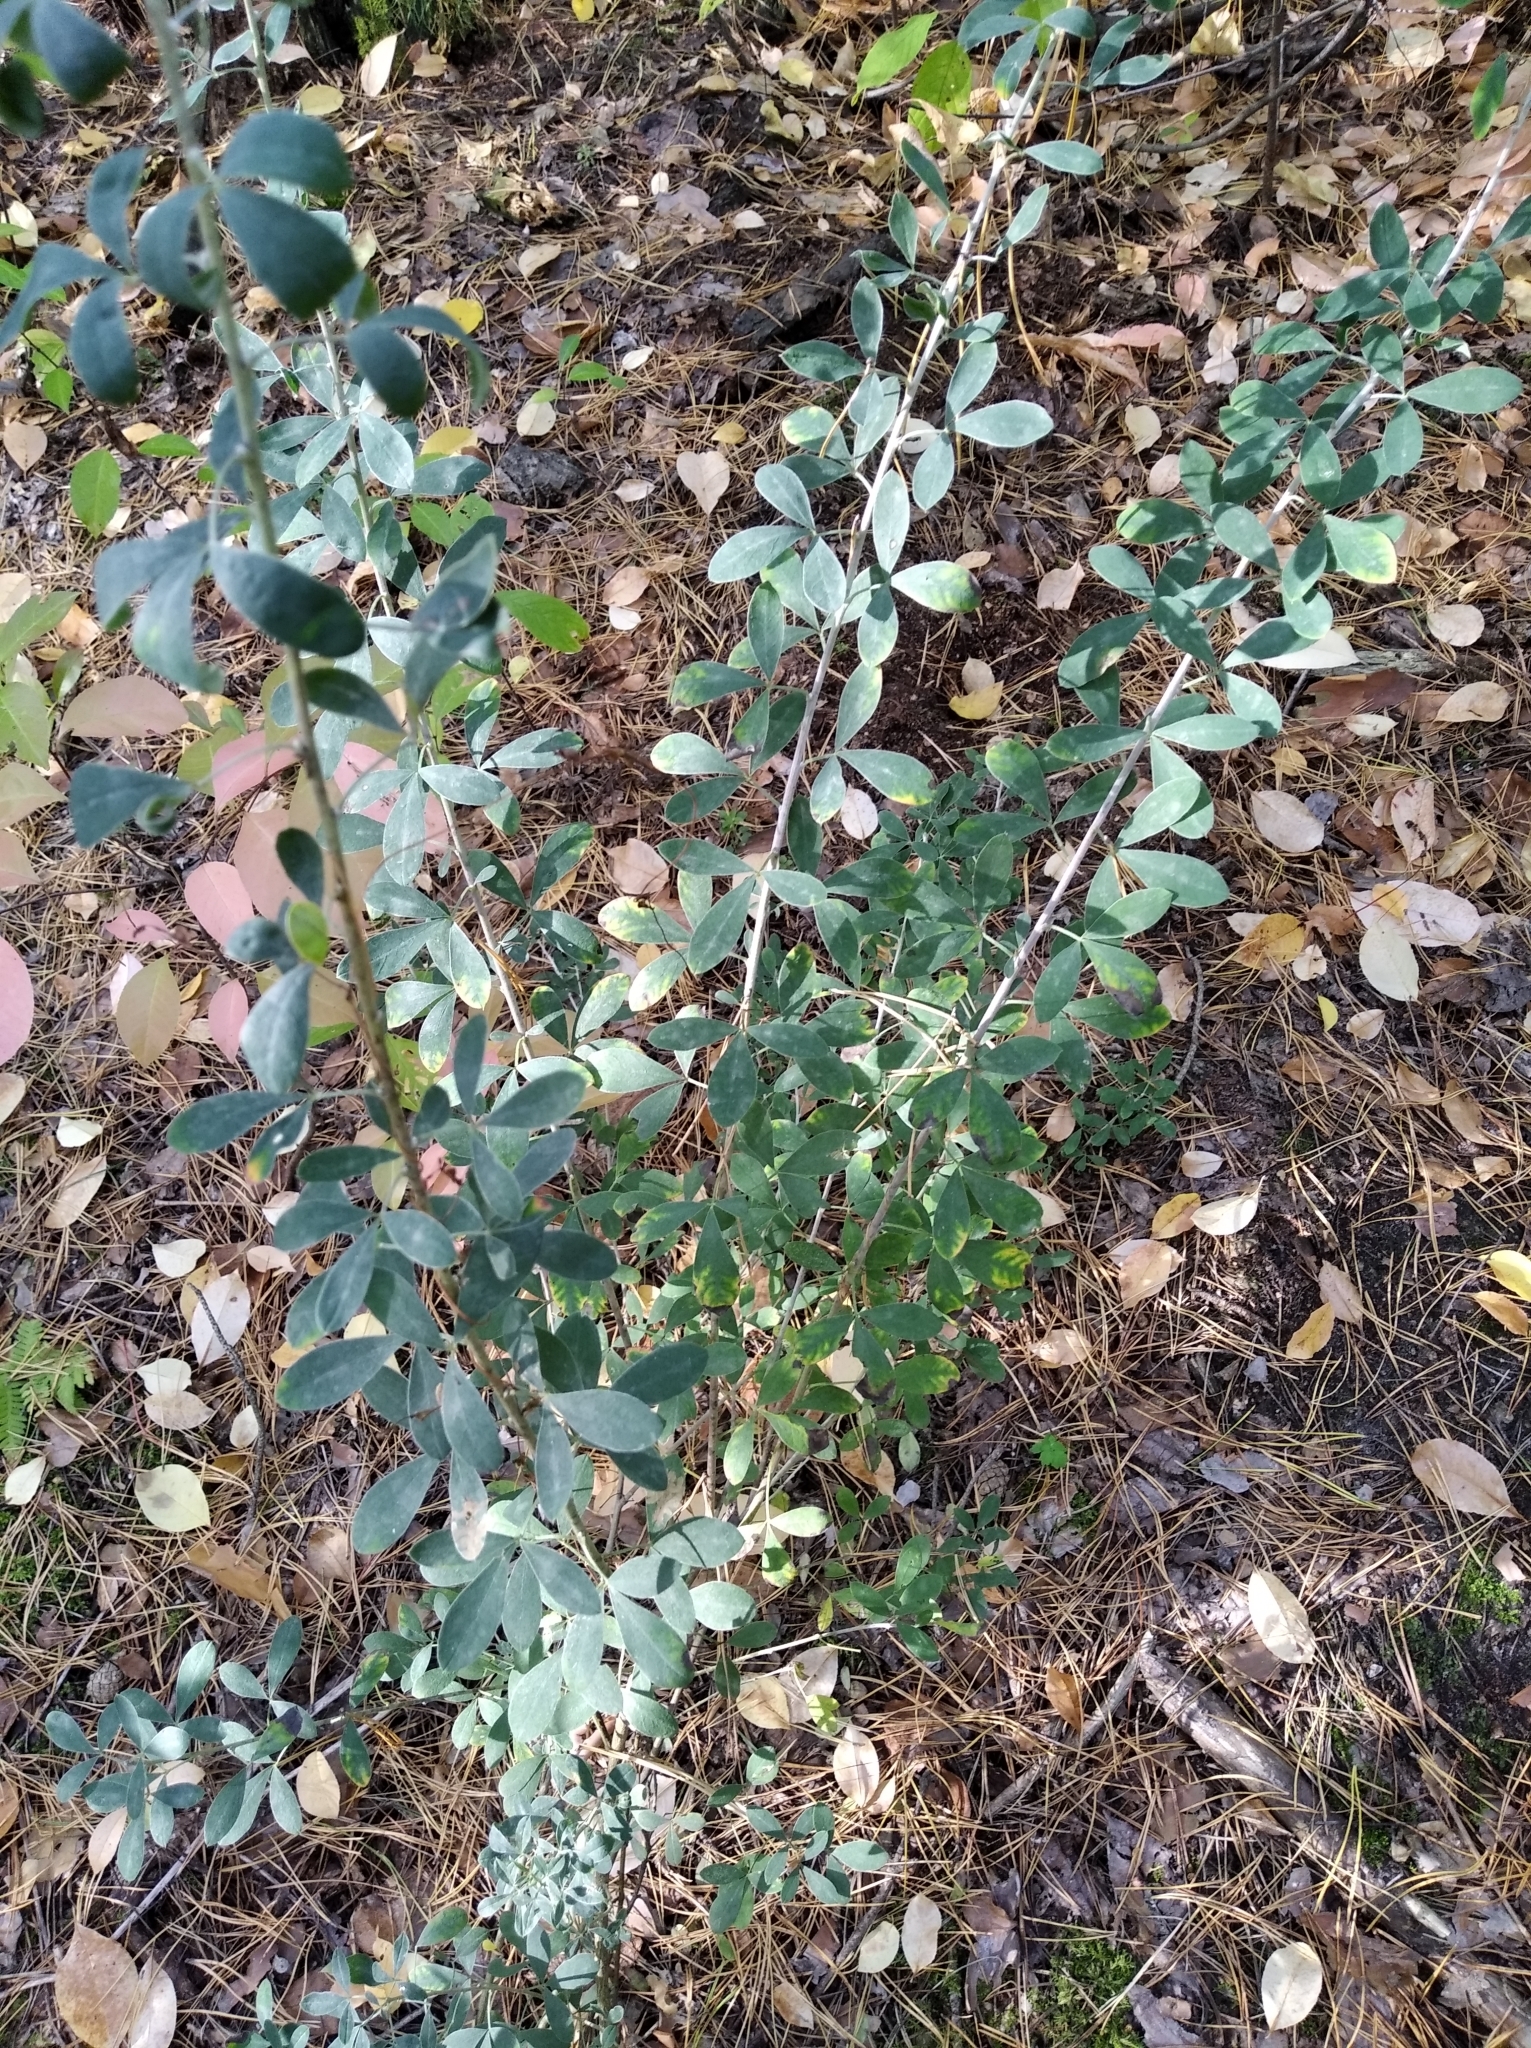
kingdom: Plantae
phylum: Tracheophyta
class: Magnoliopsida
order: Fabales
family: Fabaceae
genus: Chamaecytisus
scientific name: Chamaecytisus ruthenicus
